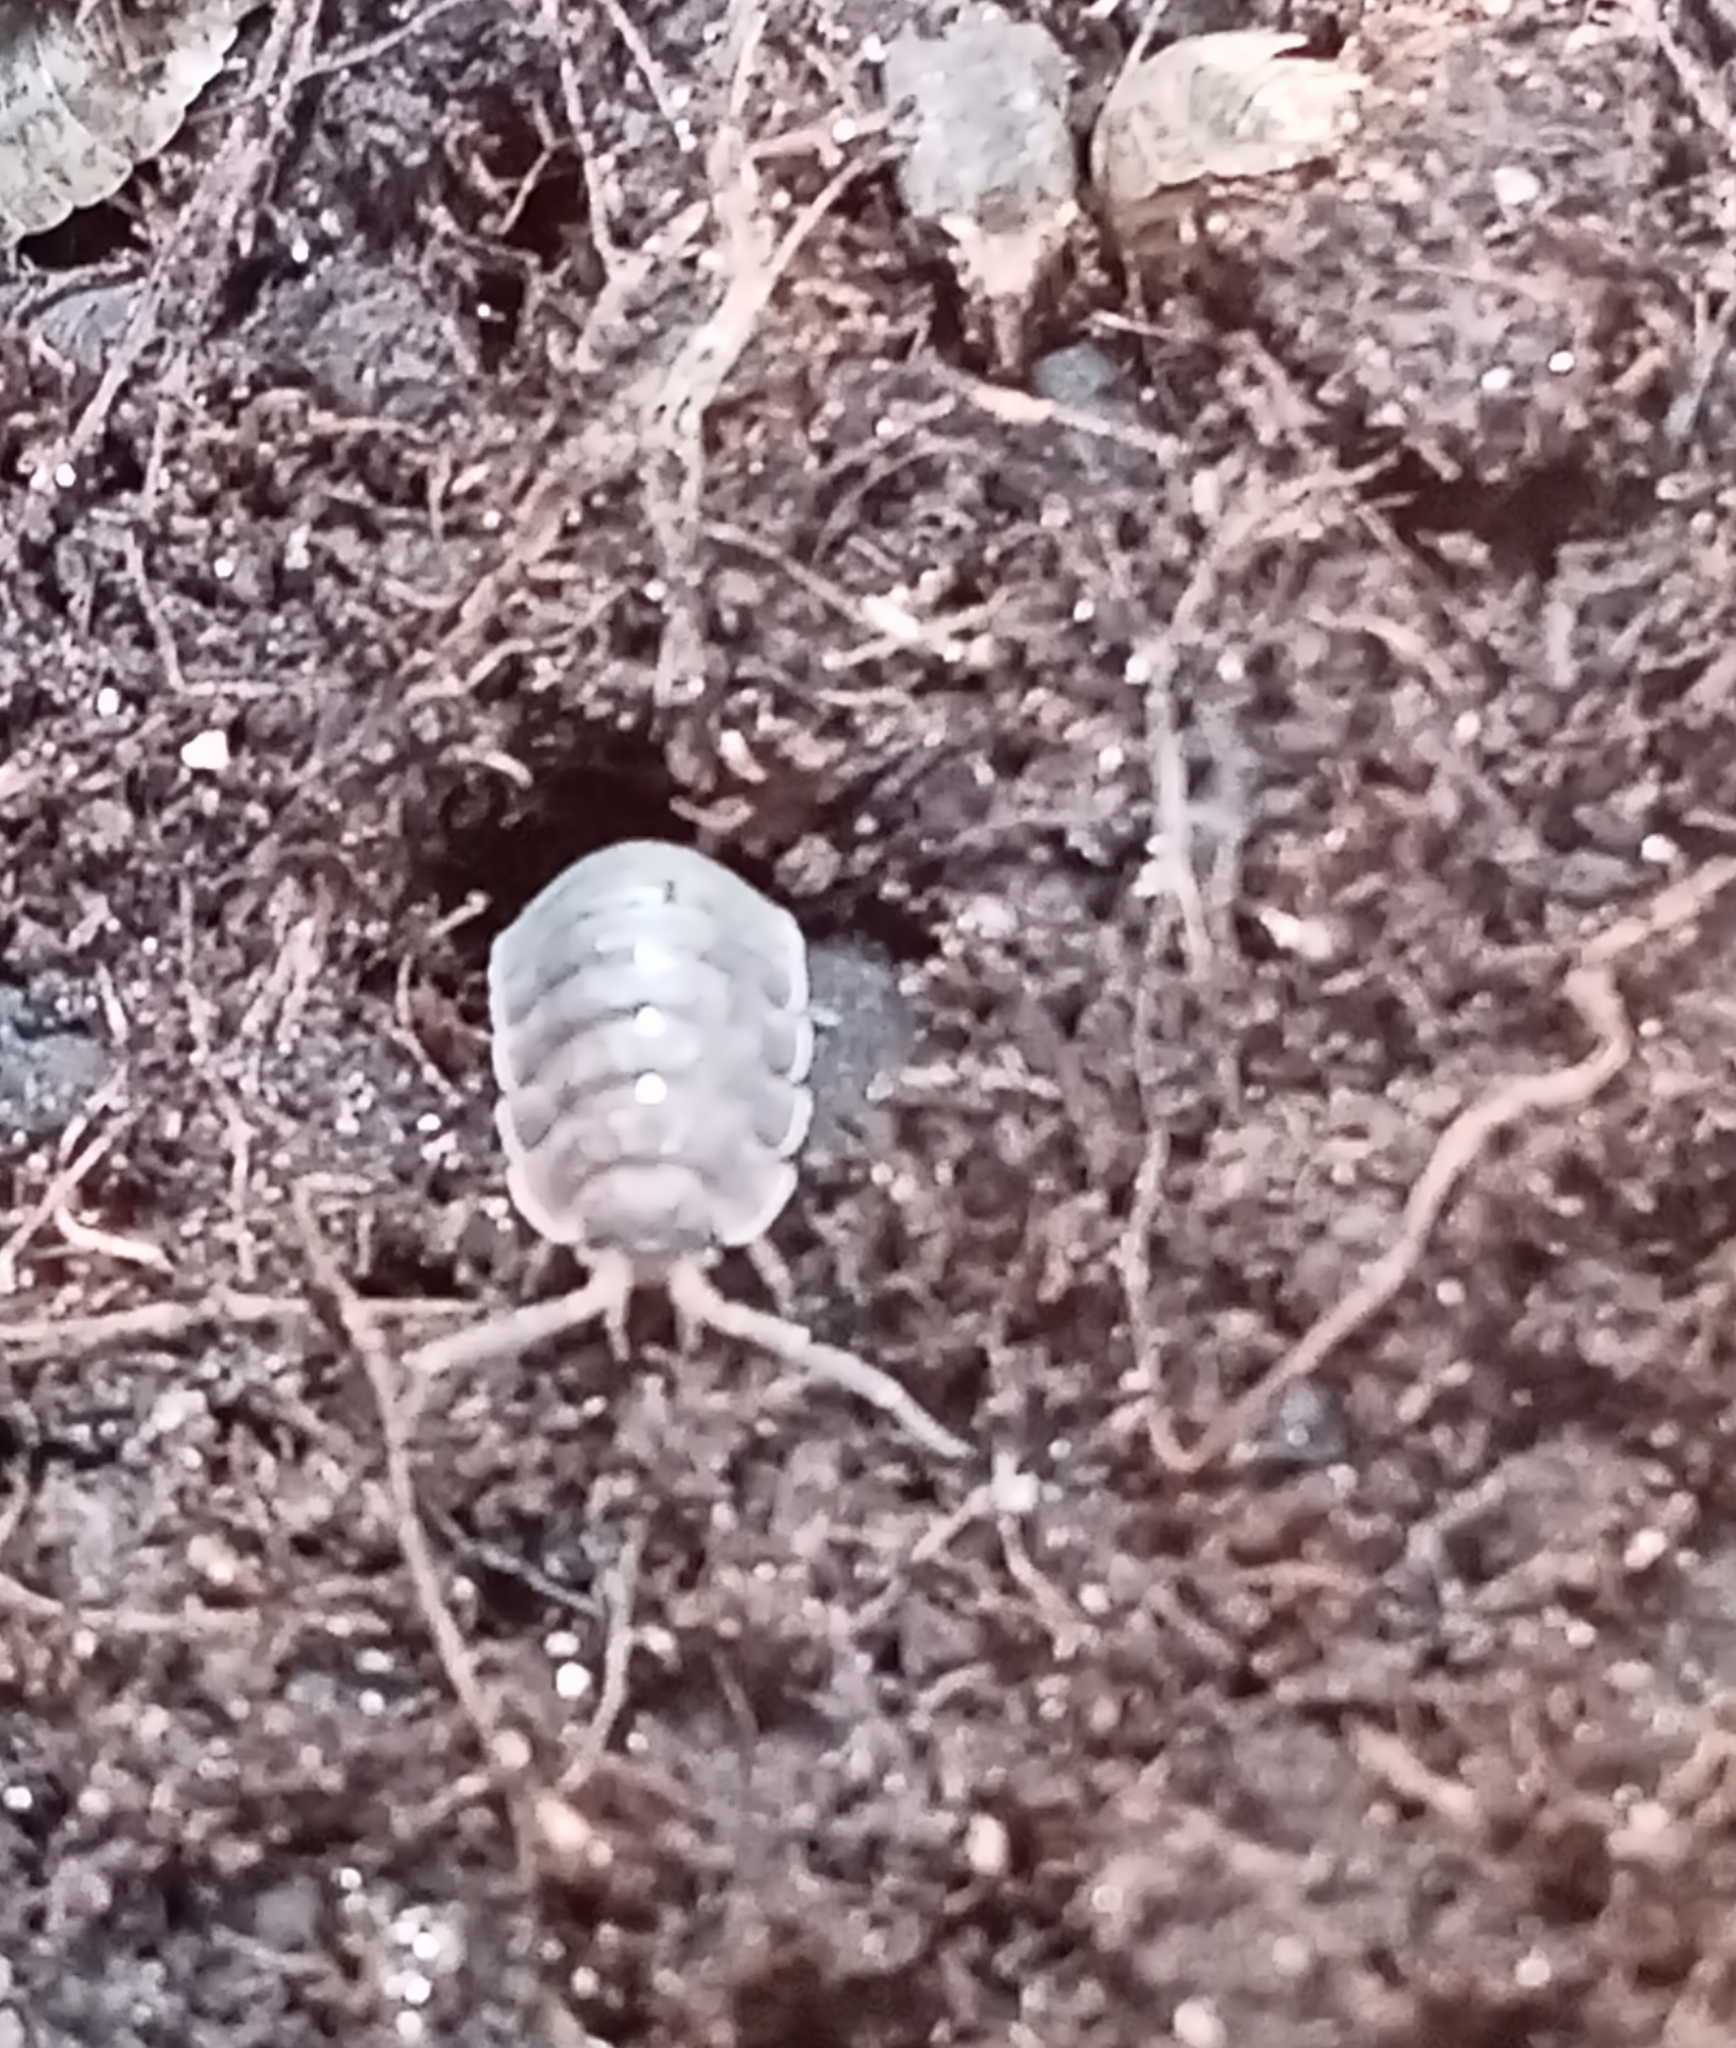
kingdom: Animalia
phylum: Arthropoda
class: Malacostraca
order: Isopoda
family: Porcellionidae
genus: Porcellio
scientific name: Porcellio scaber
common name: Common rough woodlouse
